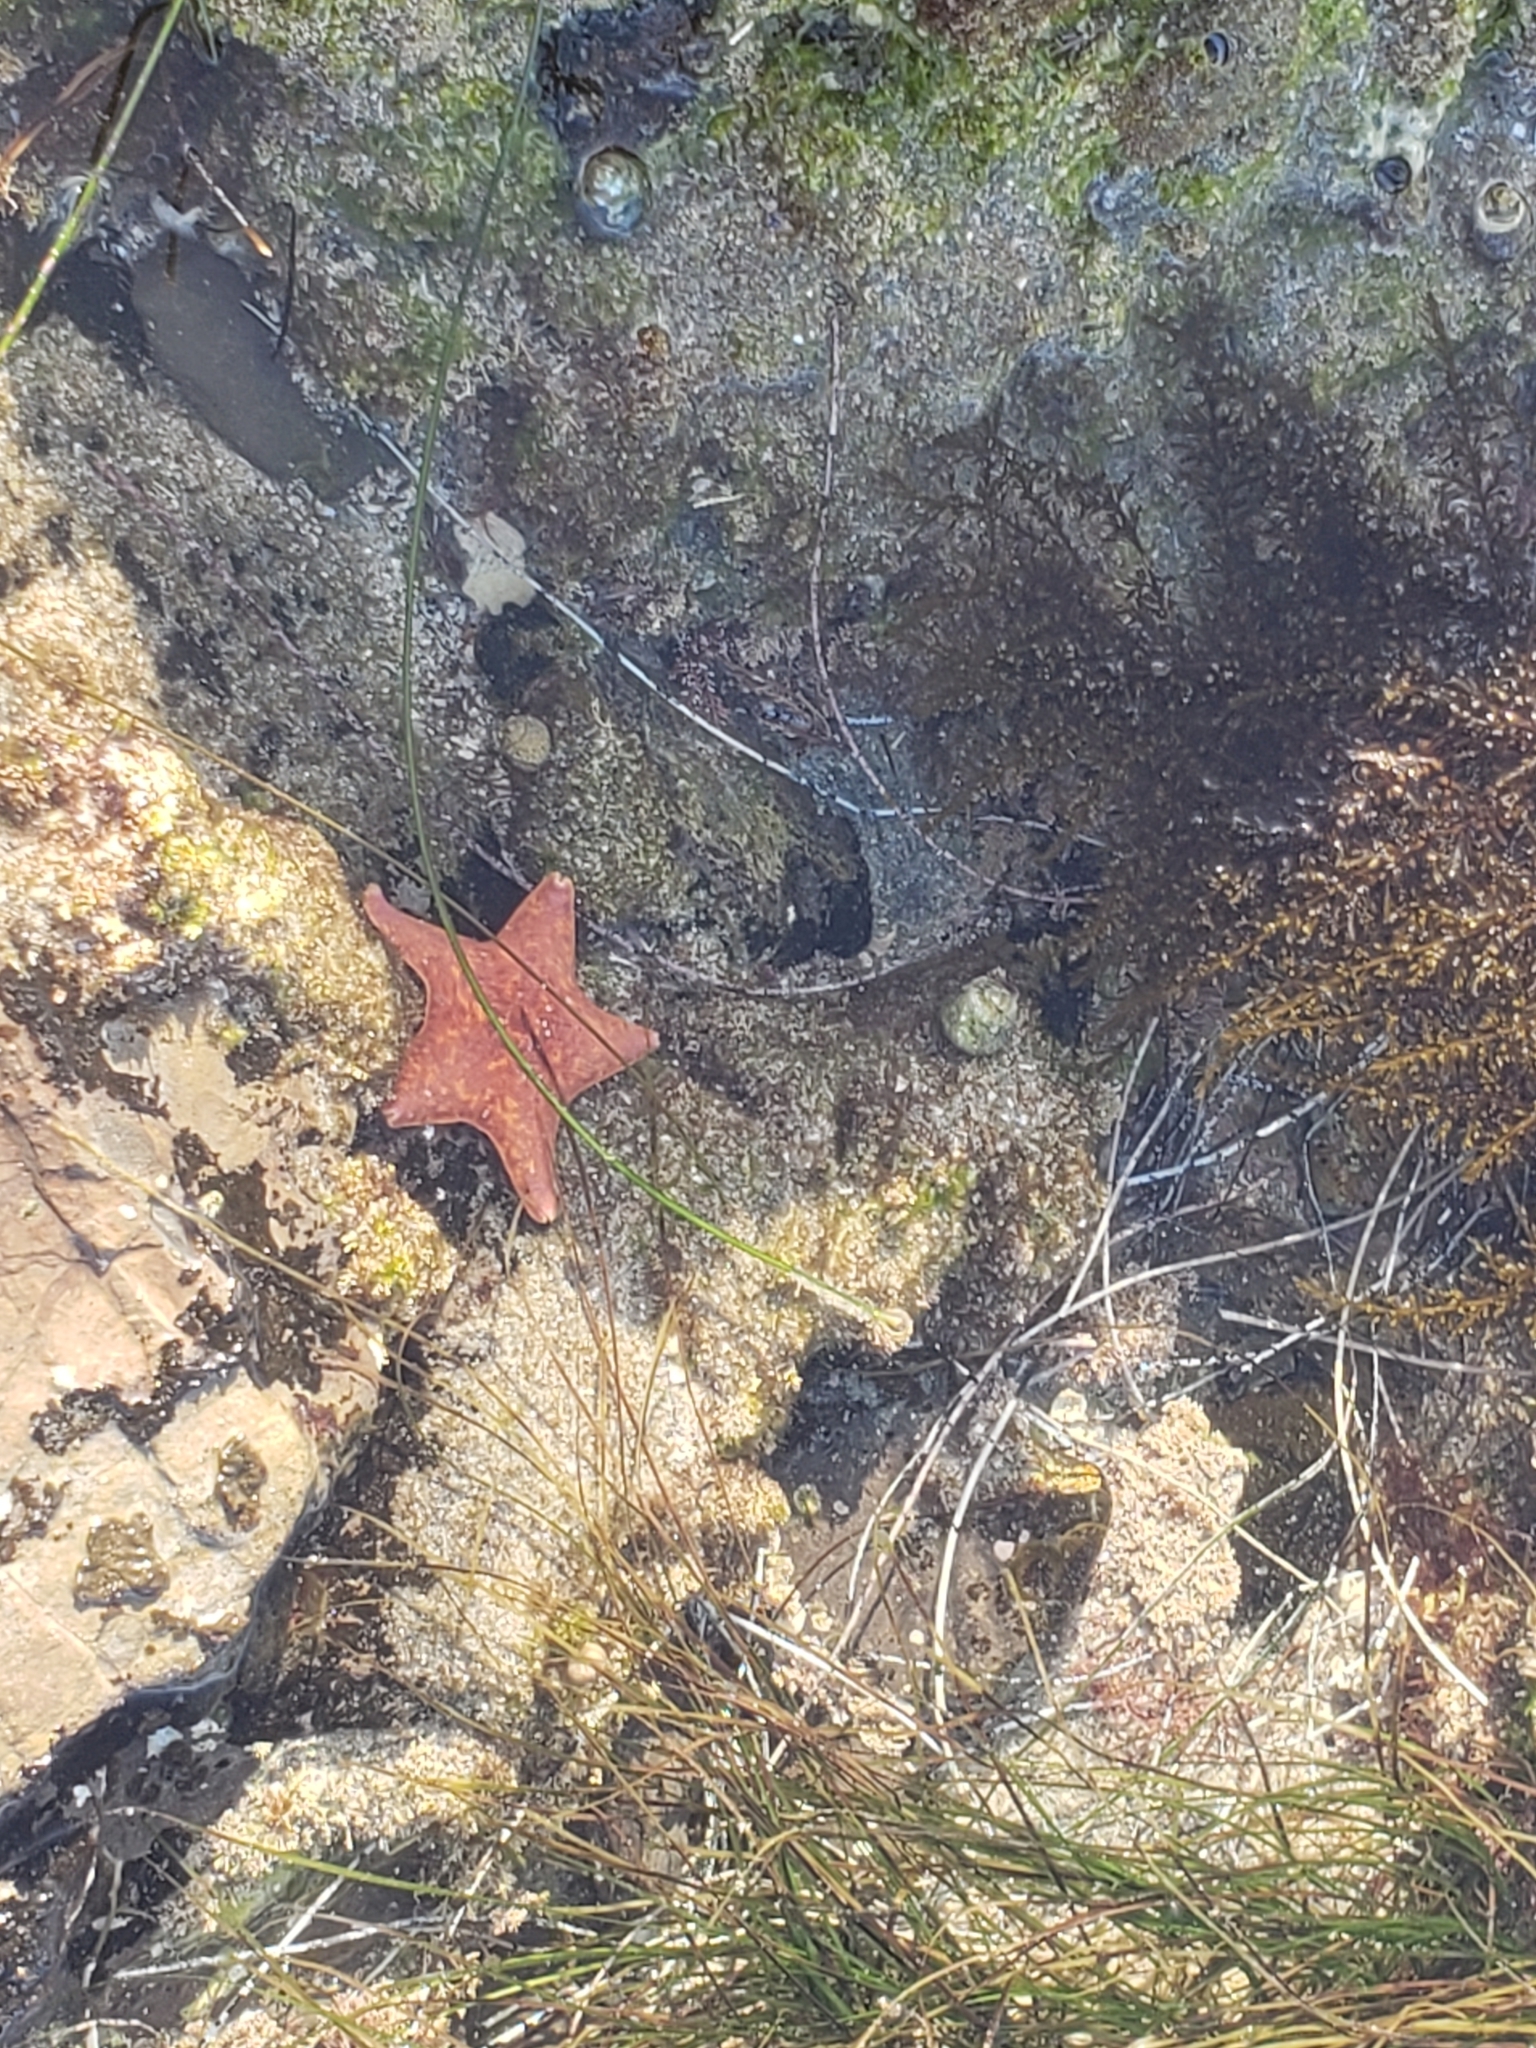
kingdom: Animalia
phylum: Echinodermata
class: Asteroidea
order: Valvatida
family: Asterinidae
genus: Patiria
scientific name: Patiria miniata
